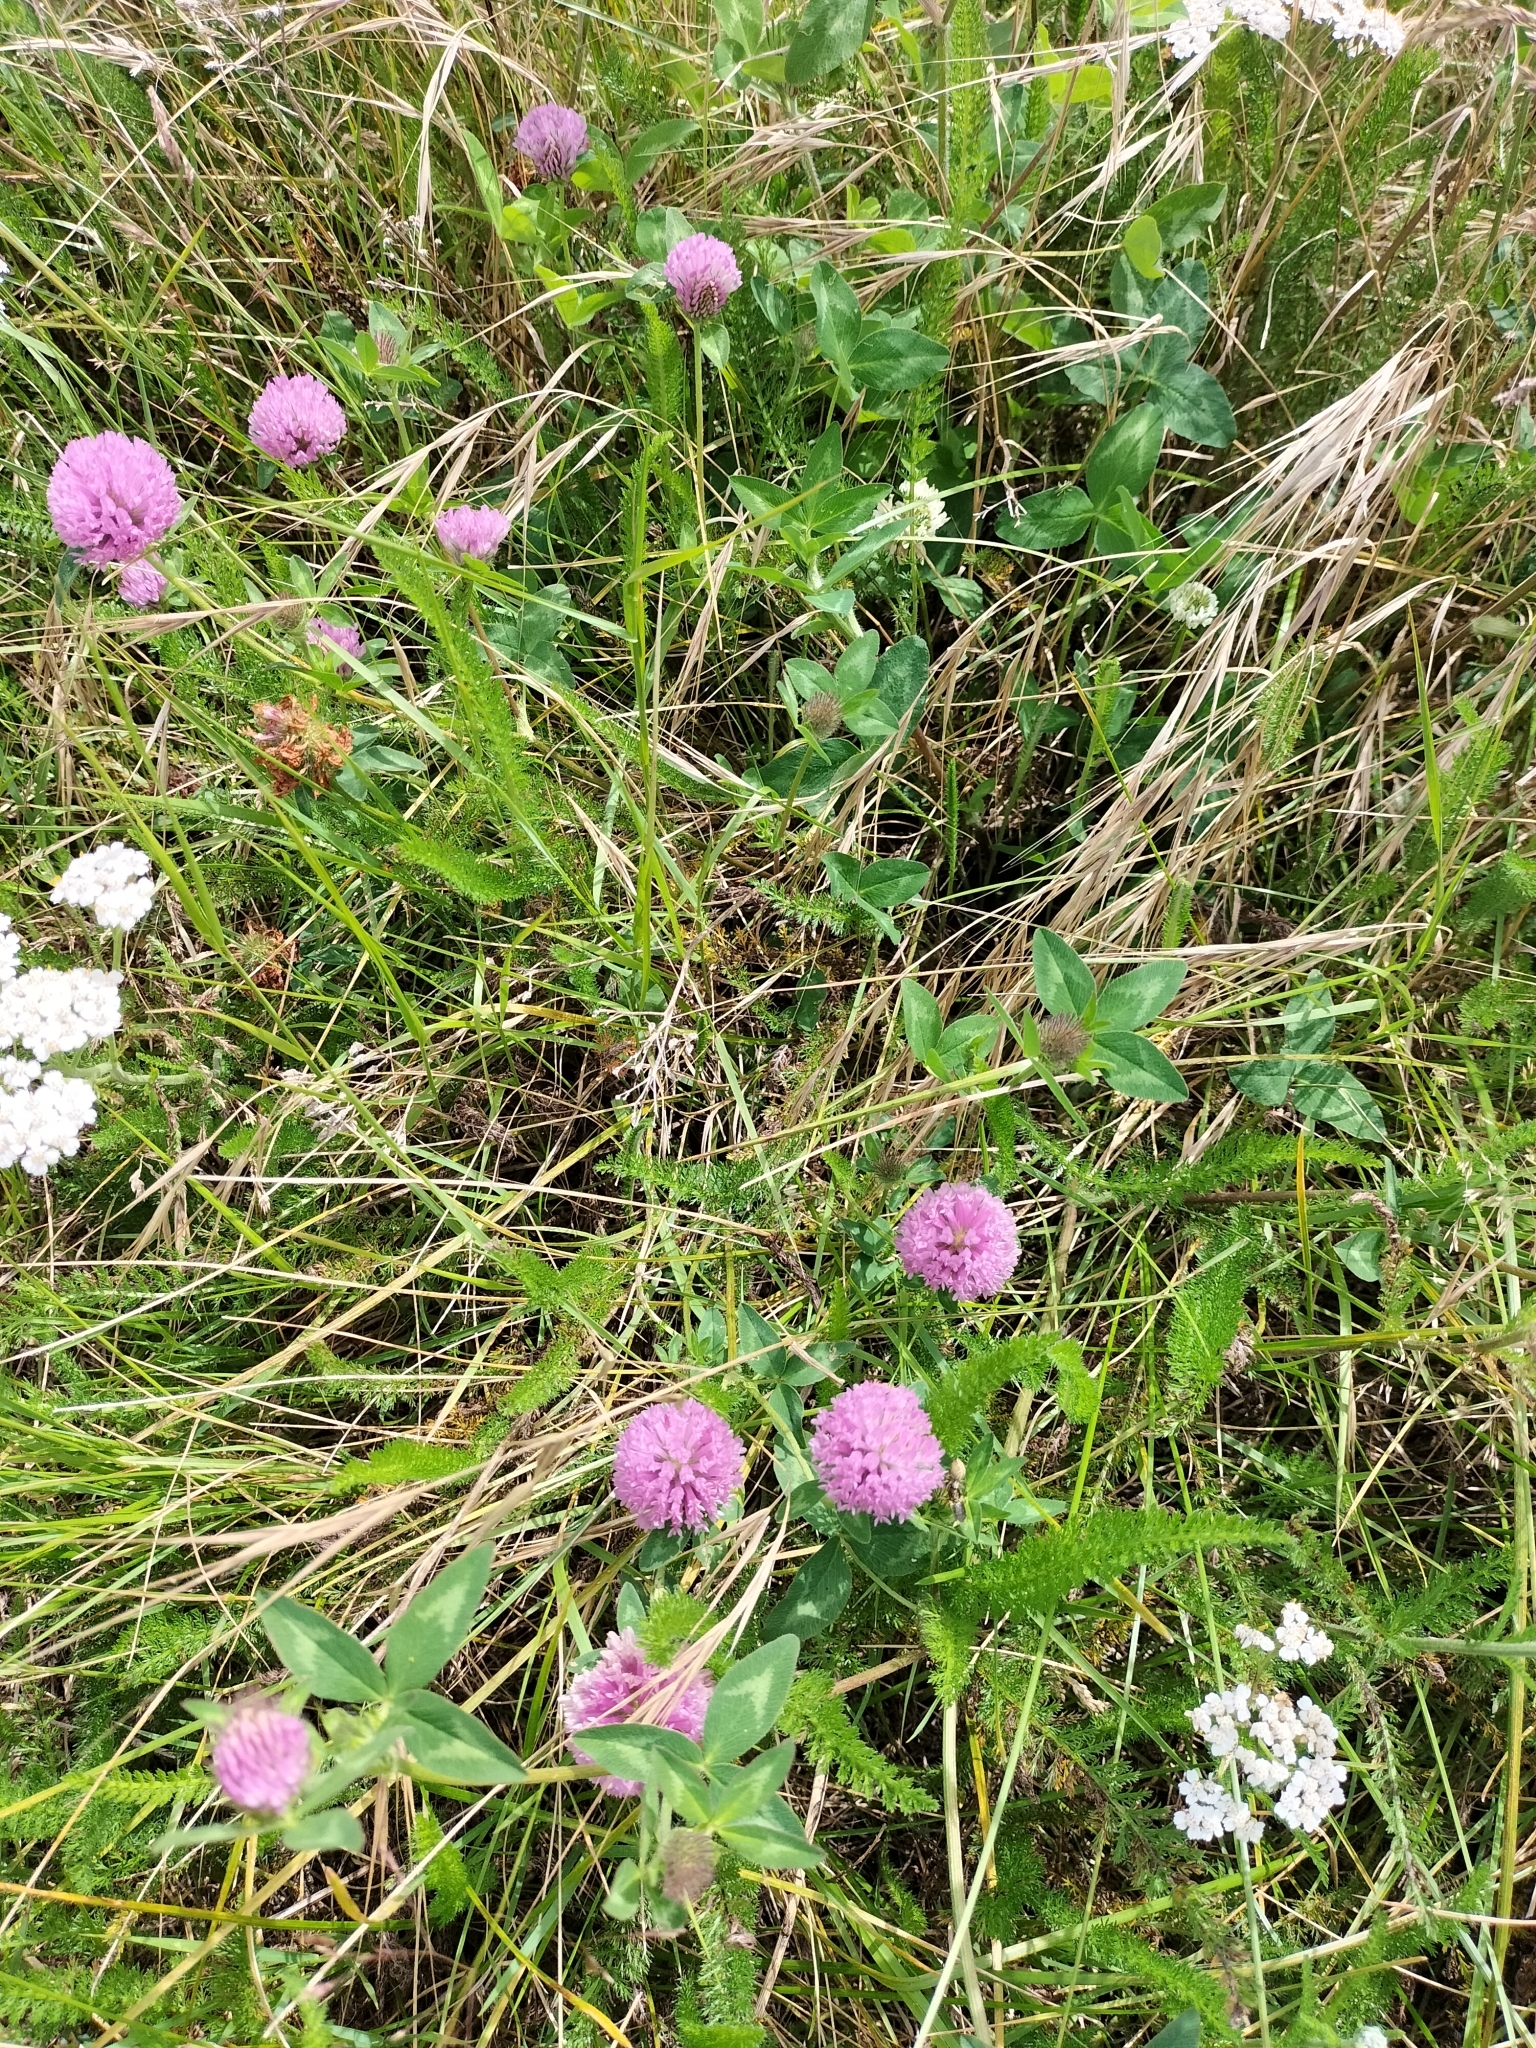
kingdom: Plantae
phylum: Tracheophyta
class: Magnoliopsida
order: Fabales
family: Fabaceae
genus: Trifolium
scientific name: Trifolium pratense
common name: Red clover
